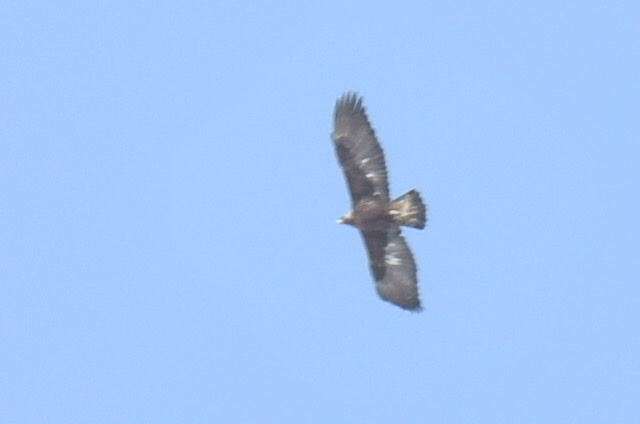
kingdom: Animalia
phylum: Chordata
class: Aves
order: Accipitriformes
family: Accipitridae
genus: Aquila
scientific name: Aquila chrysaetos
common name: Golden eagle
